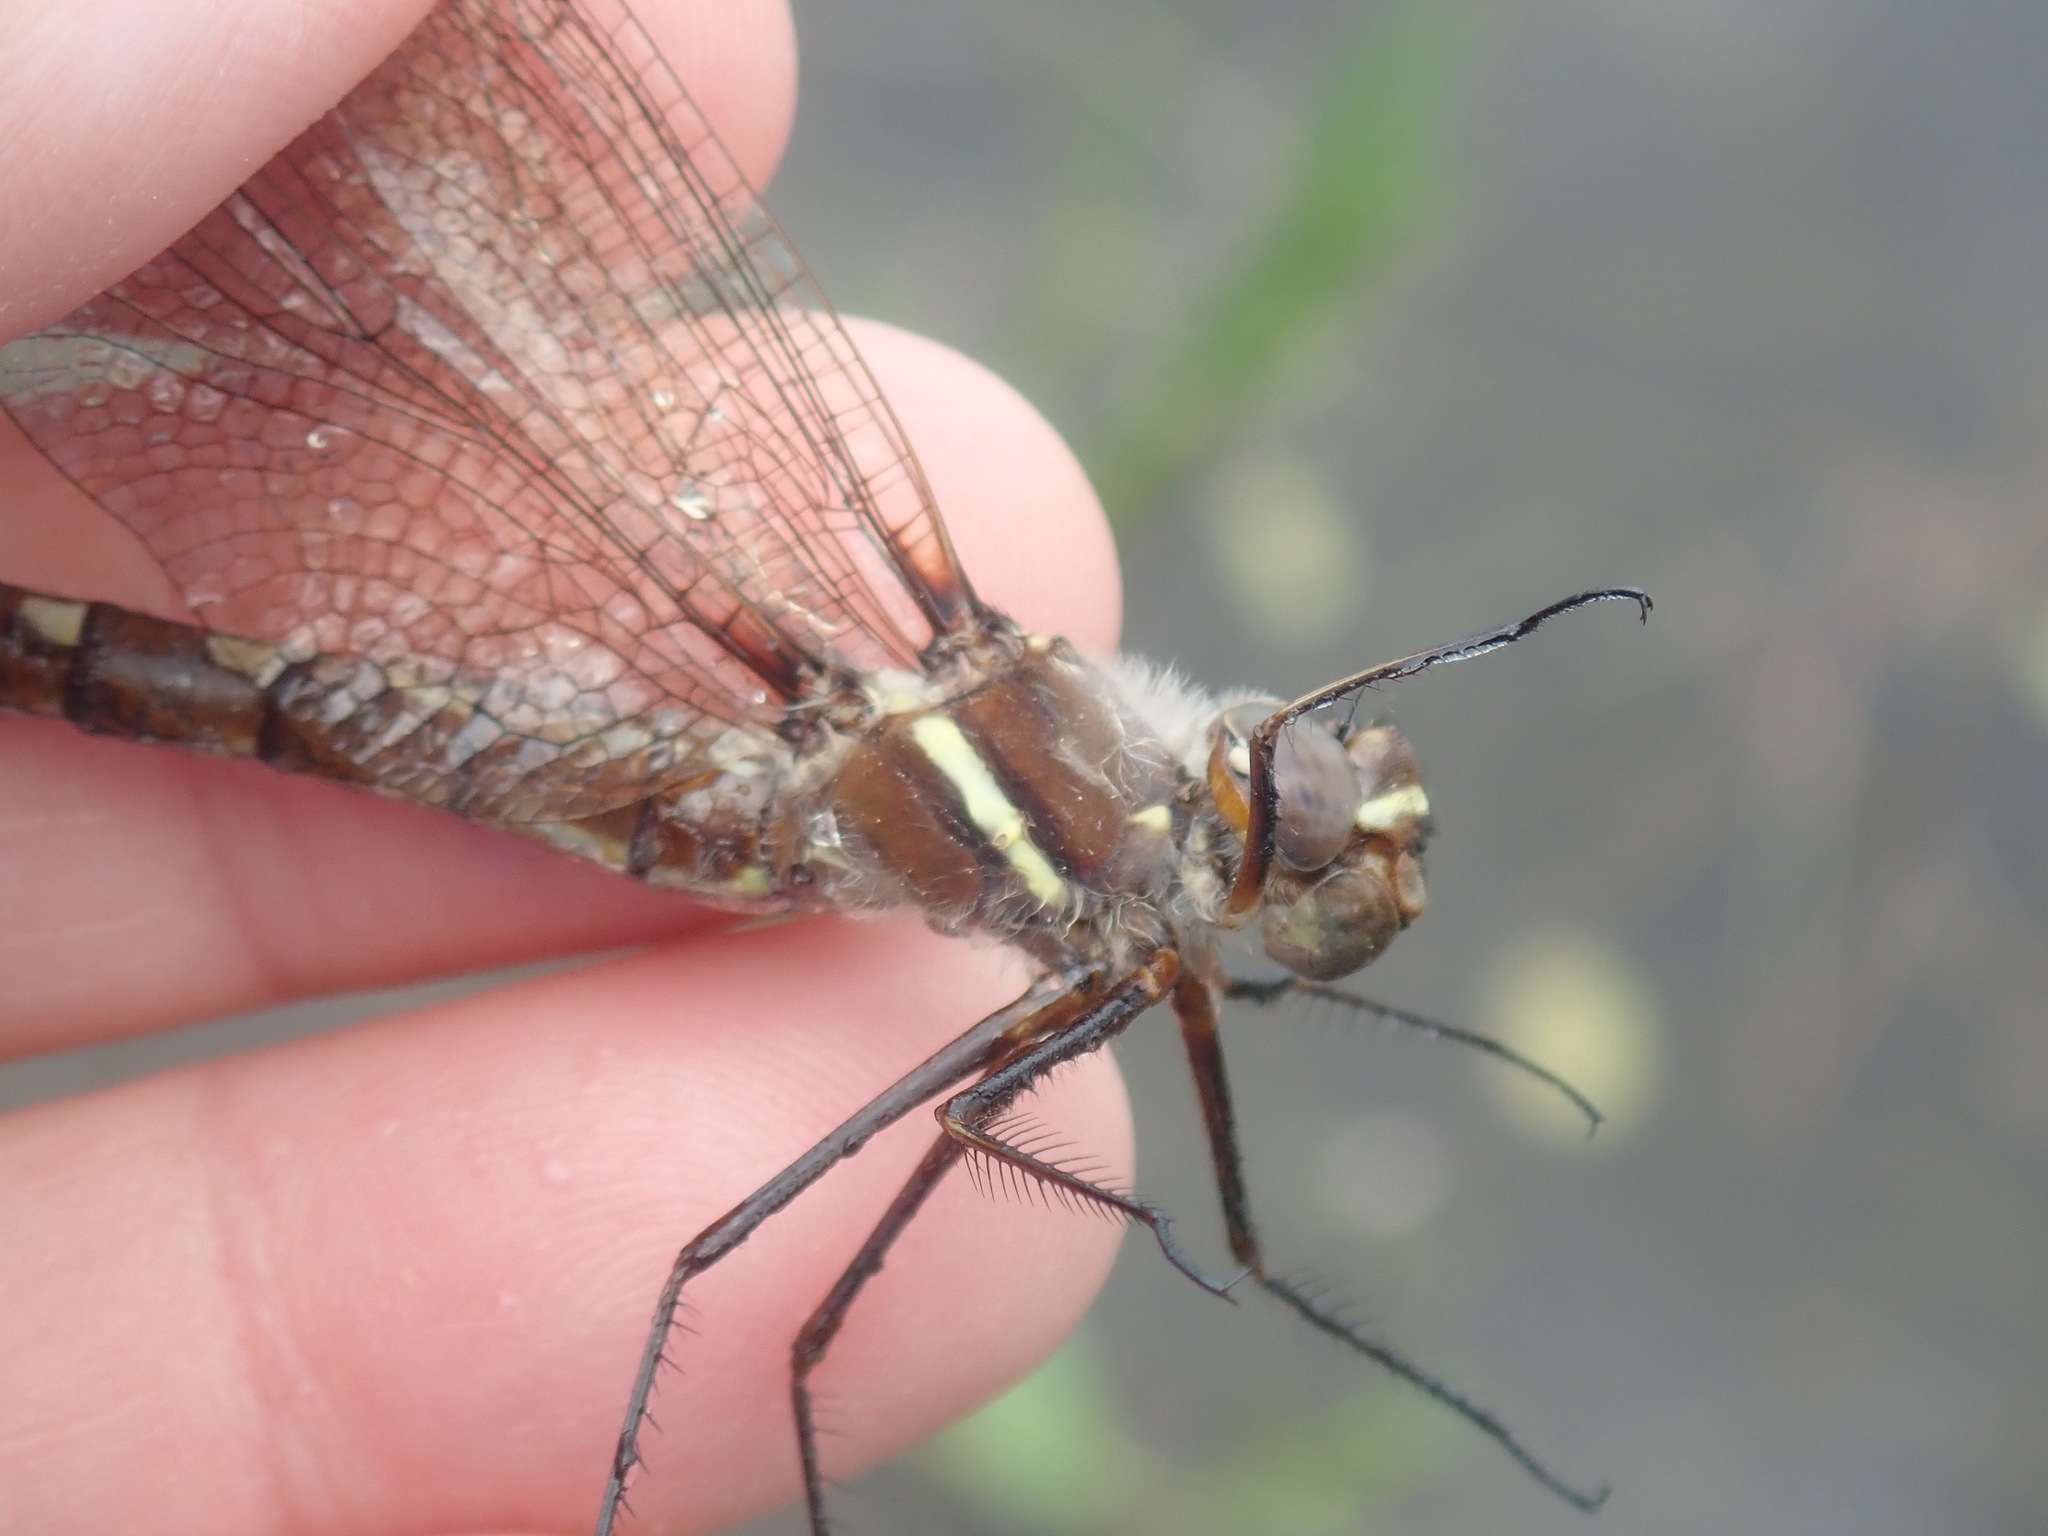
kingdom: Animalia
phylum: Arthropoda
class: Insecta
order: Odonata
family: Macromiidae
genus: Didymops
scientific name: Didymops transversa
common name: Stream cruiser
